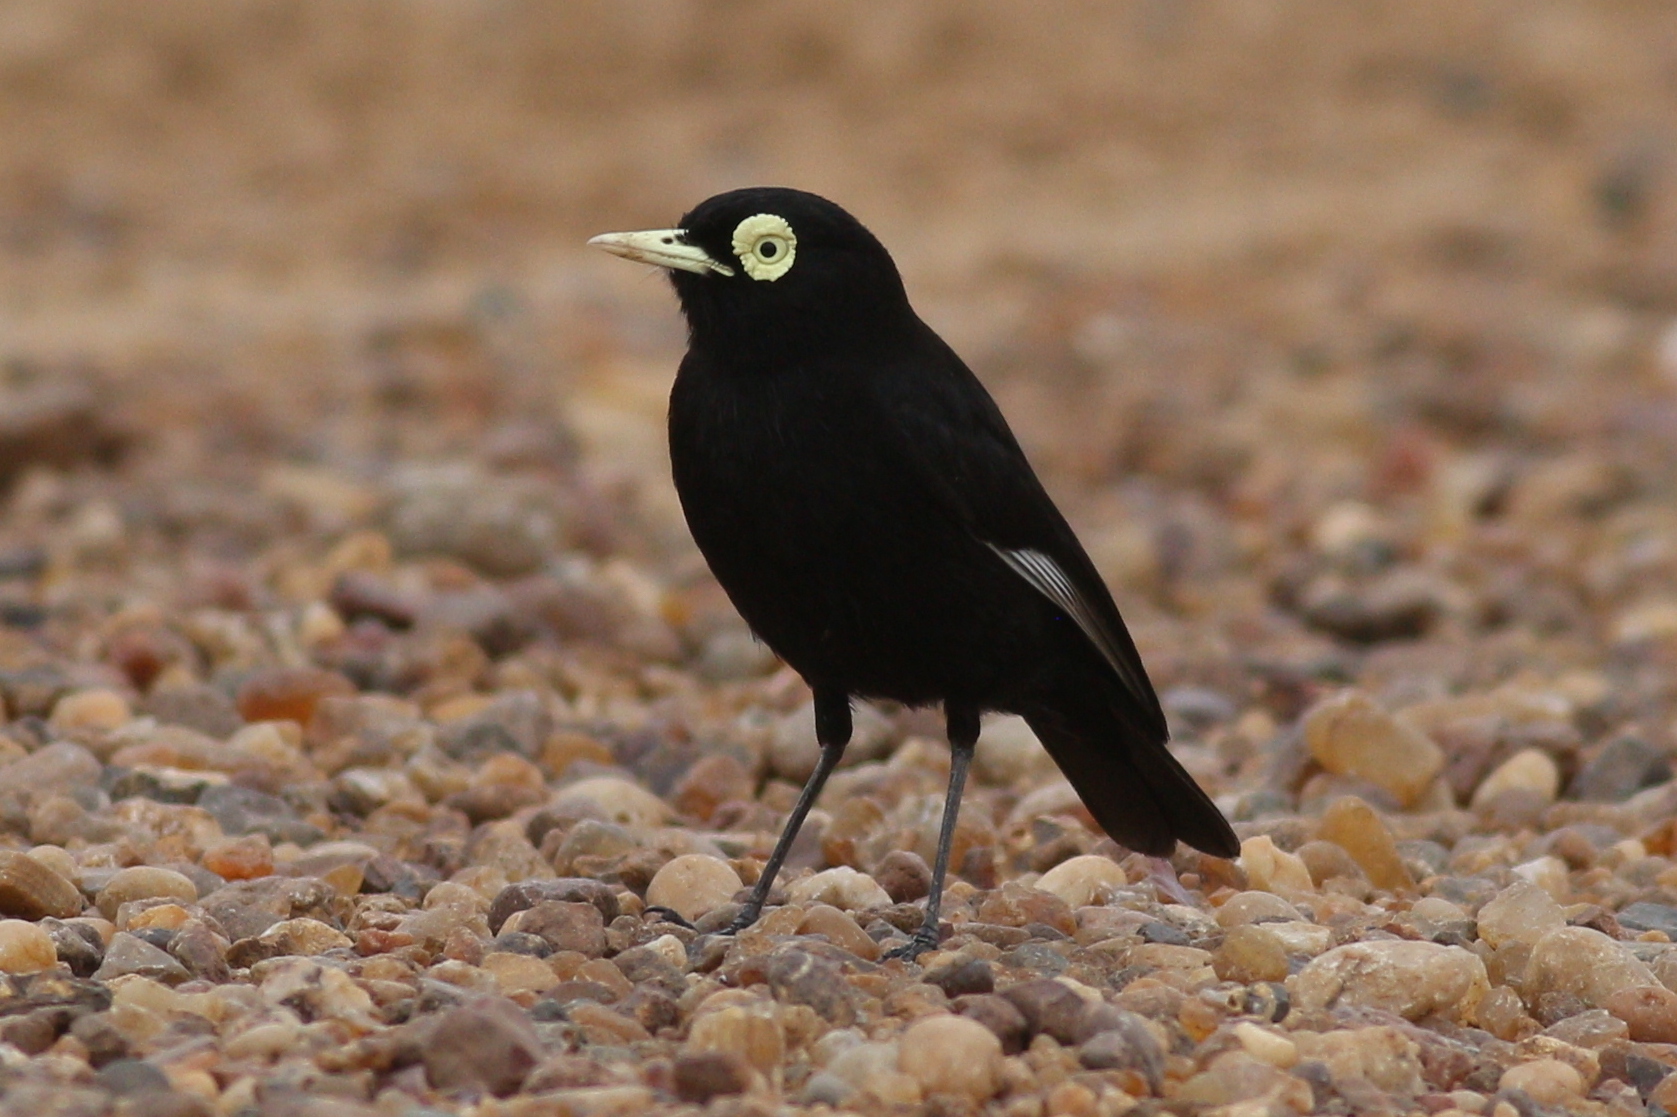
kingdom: Animalia
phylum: Chordata
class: Aves
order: Passeriformes
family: Tyrannidae
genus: Hymenops
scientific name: Hymenops perspicillatus
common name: Spectacled tyrant
